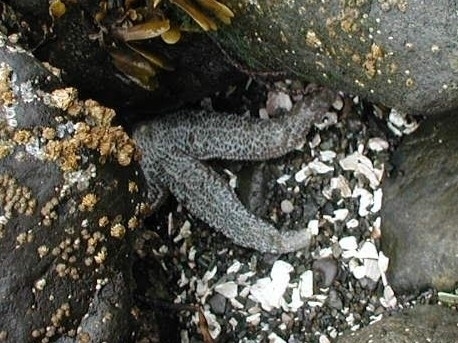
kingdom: Animalia
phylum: Echinodermata
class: Asteroidea
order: Forcipulatida
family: Asteriidae
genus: Evasterias
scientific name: Evasterias troschelii
